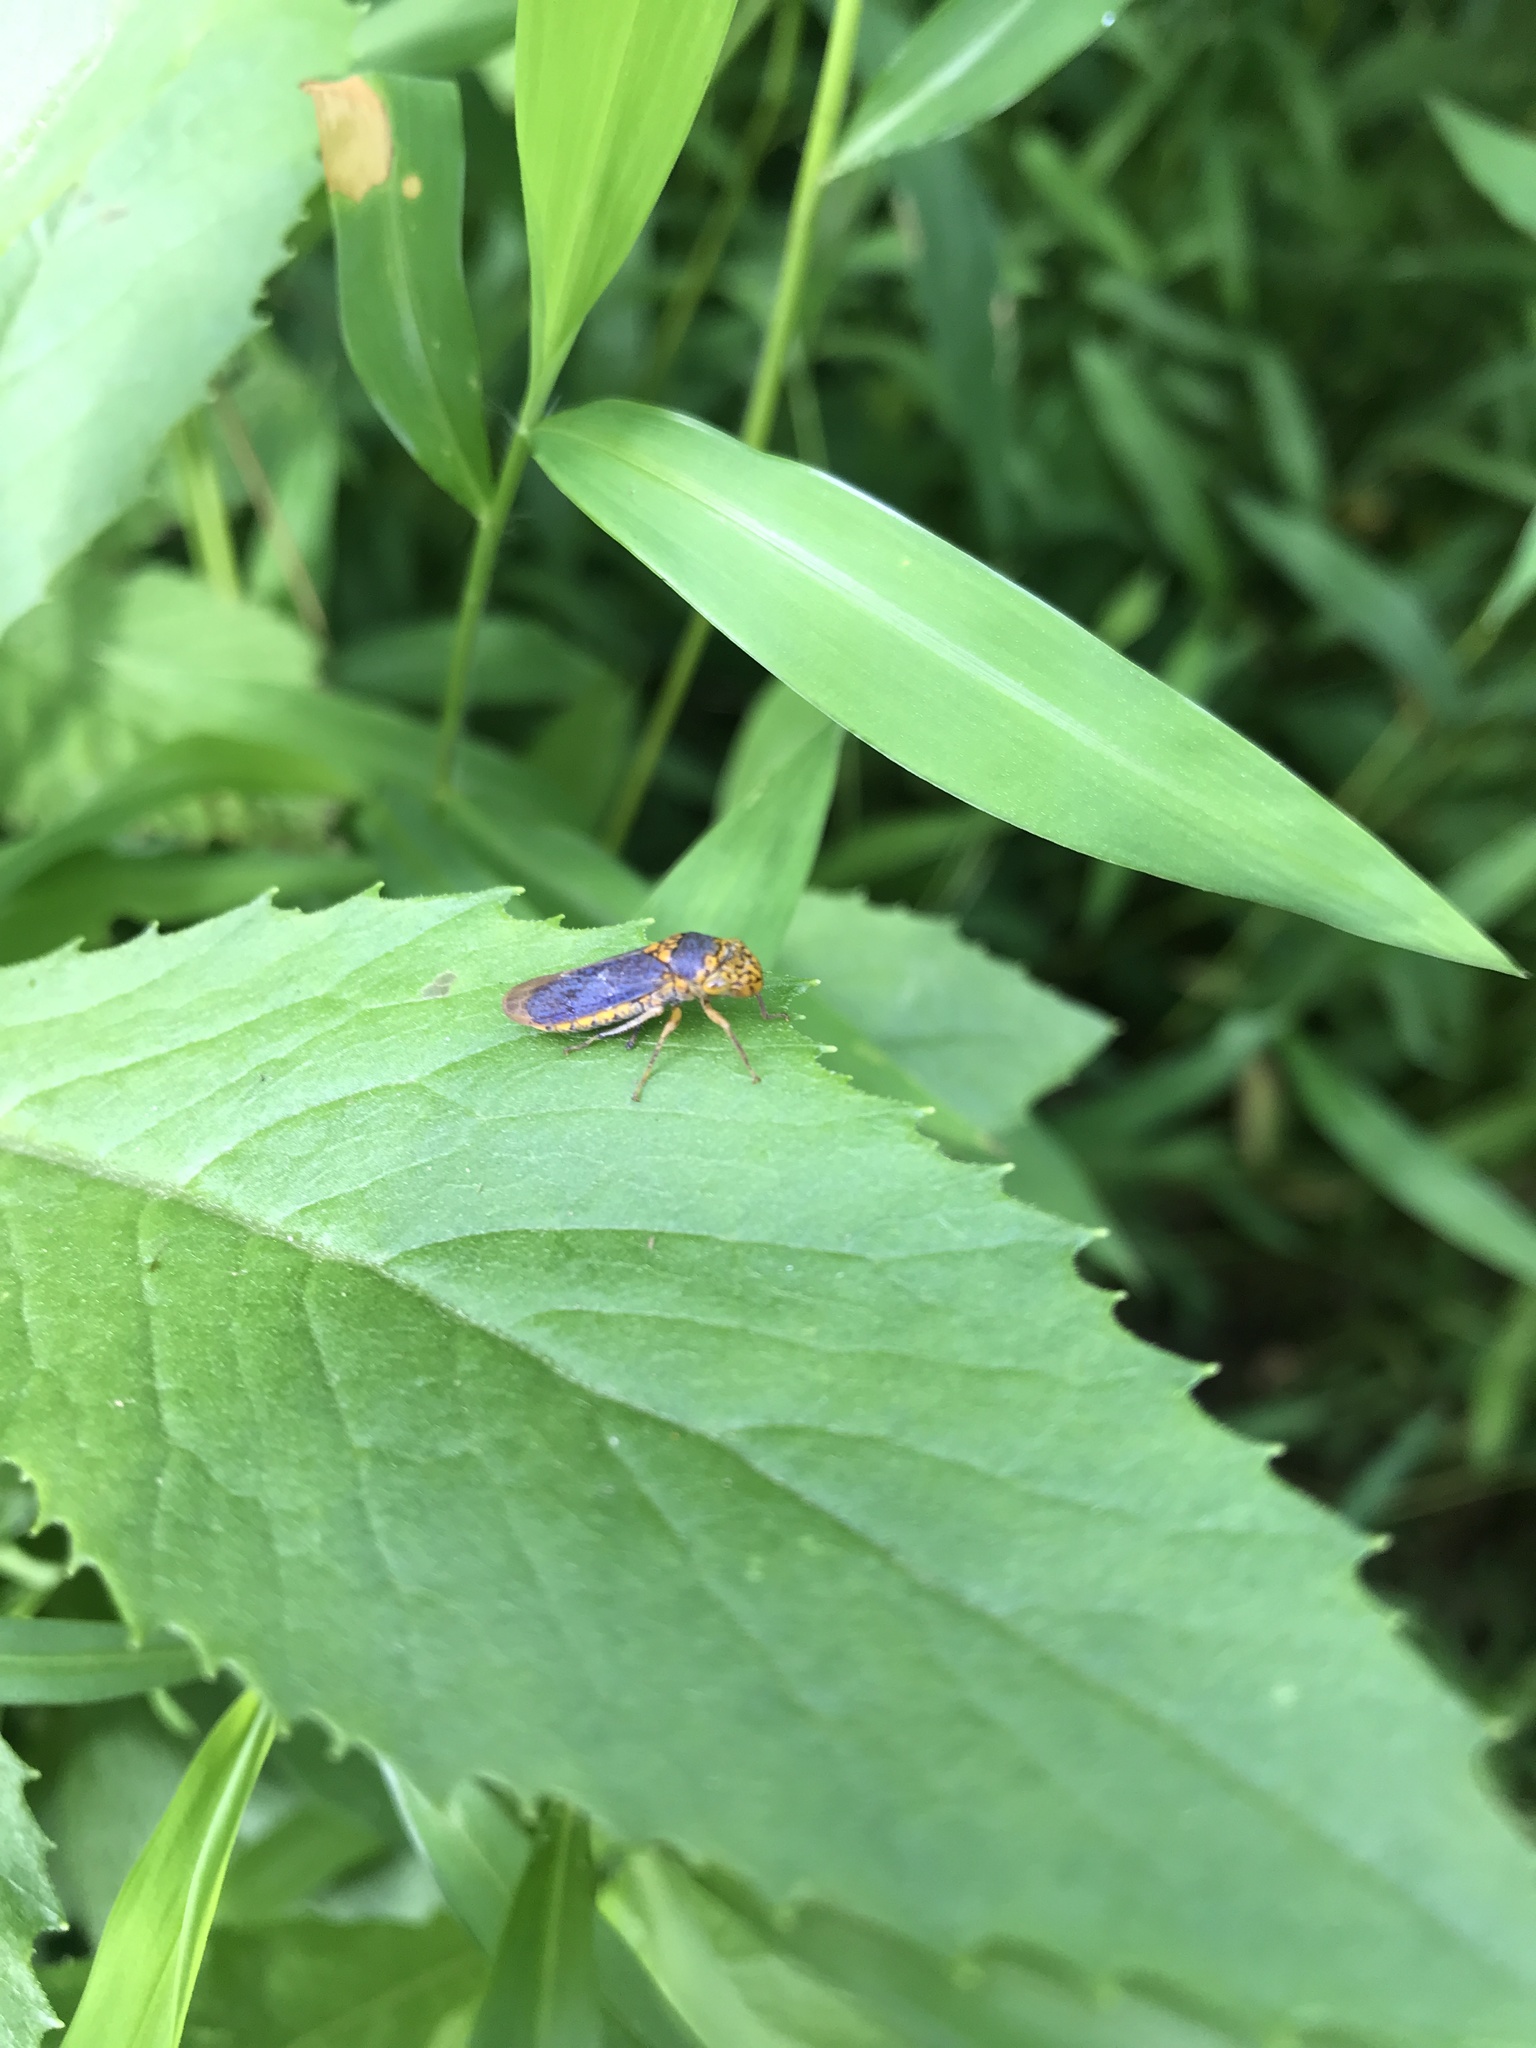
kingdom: Animalia
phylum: Arthropoda
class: Insecta
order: Hemiptera
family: Cicadellidae
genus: Oncometopia
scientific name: Oncometopia orbona
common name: Broad-headed sharpshooter
